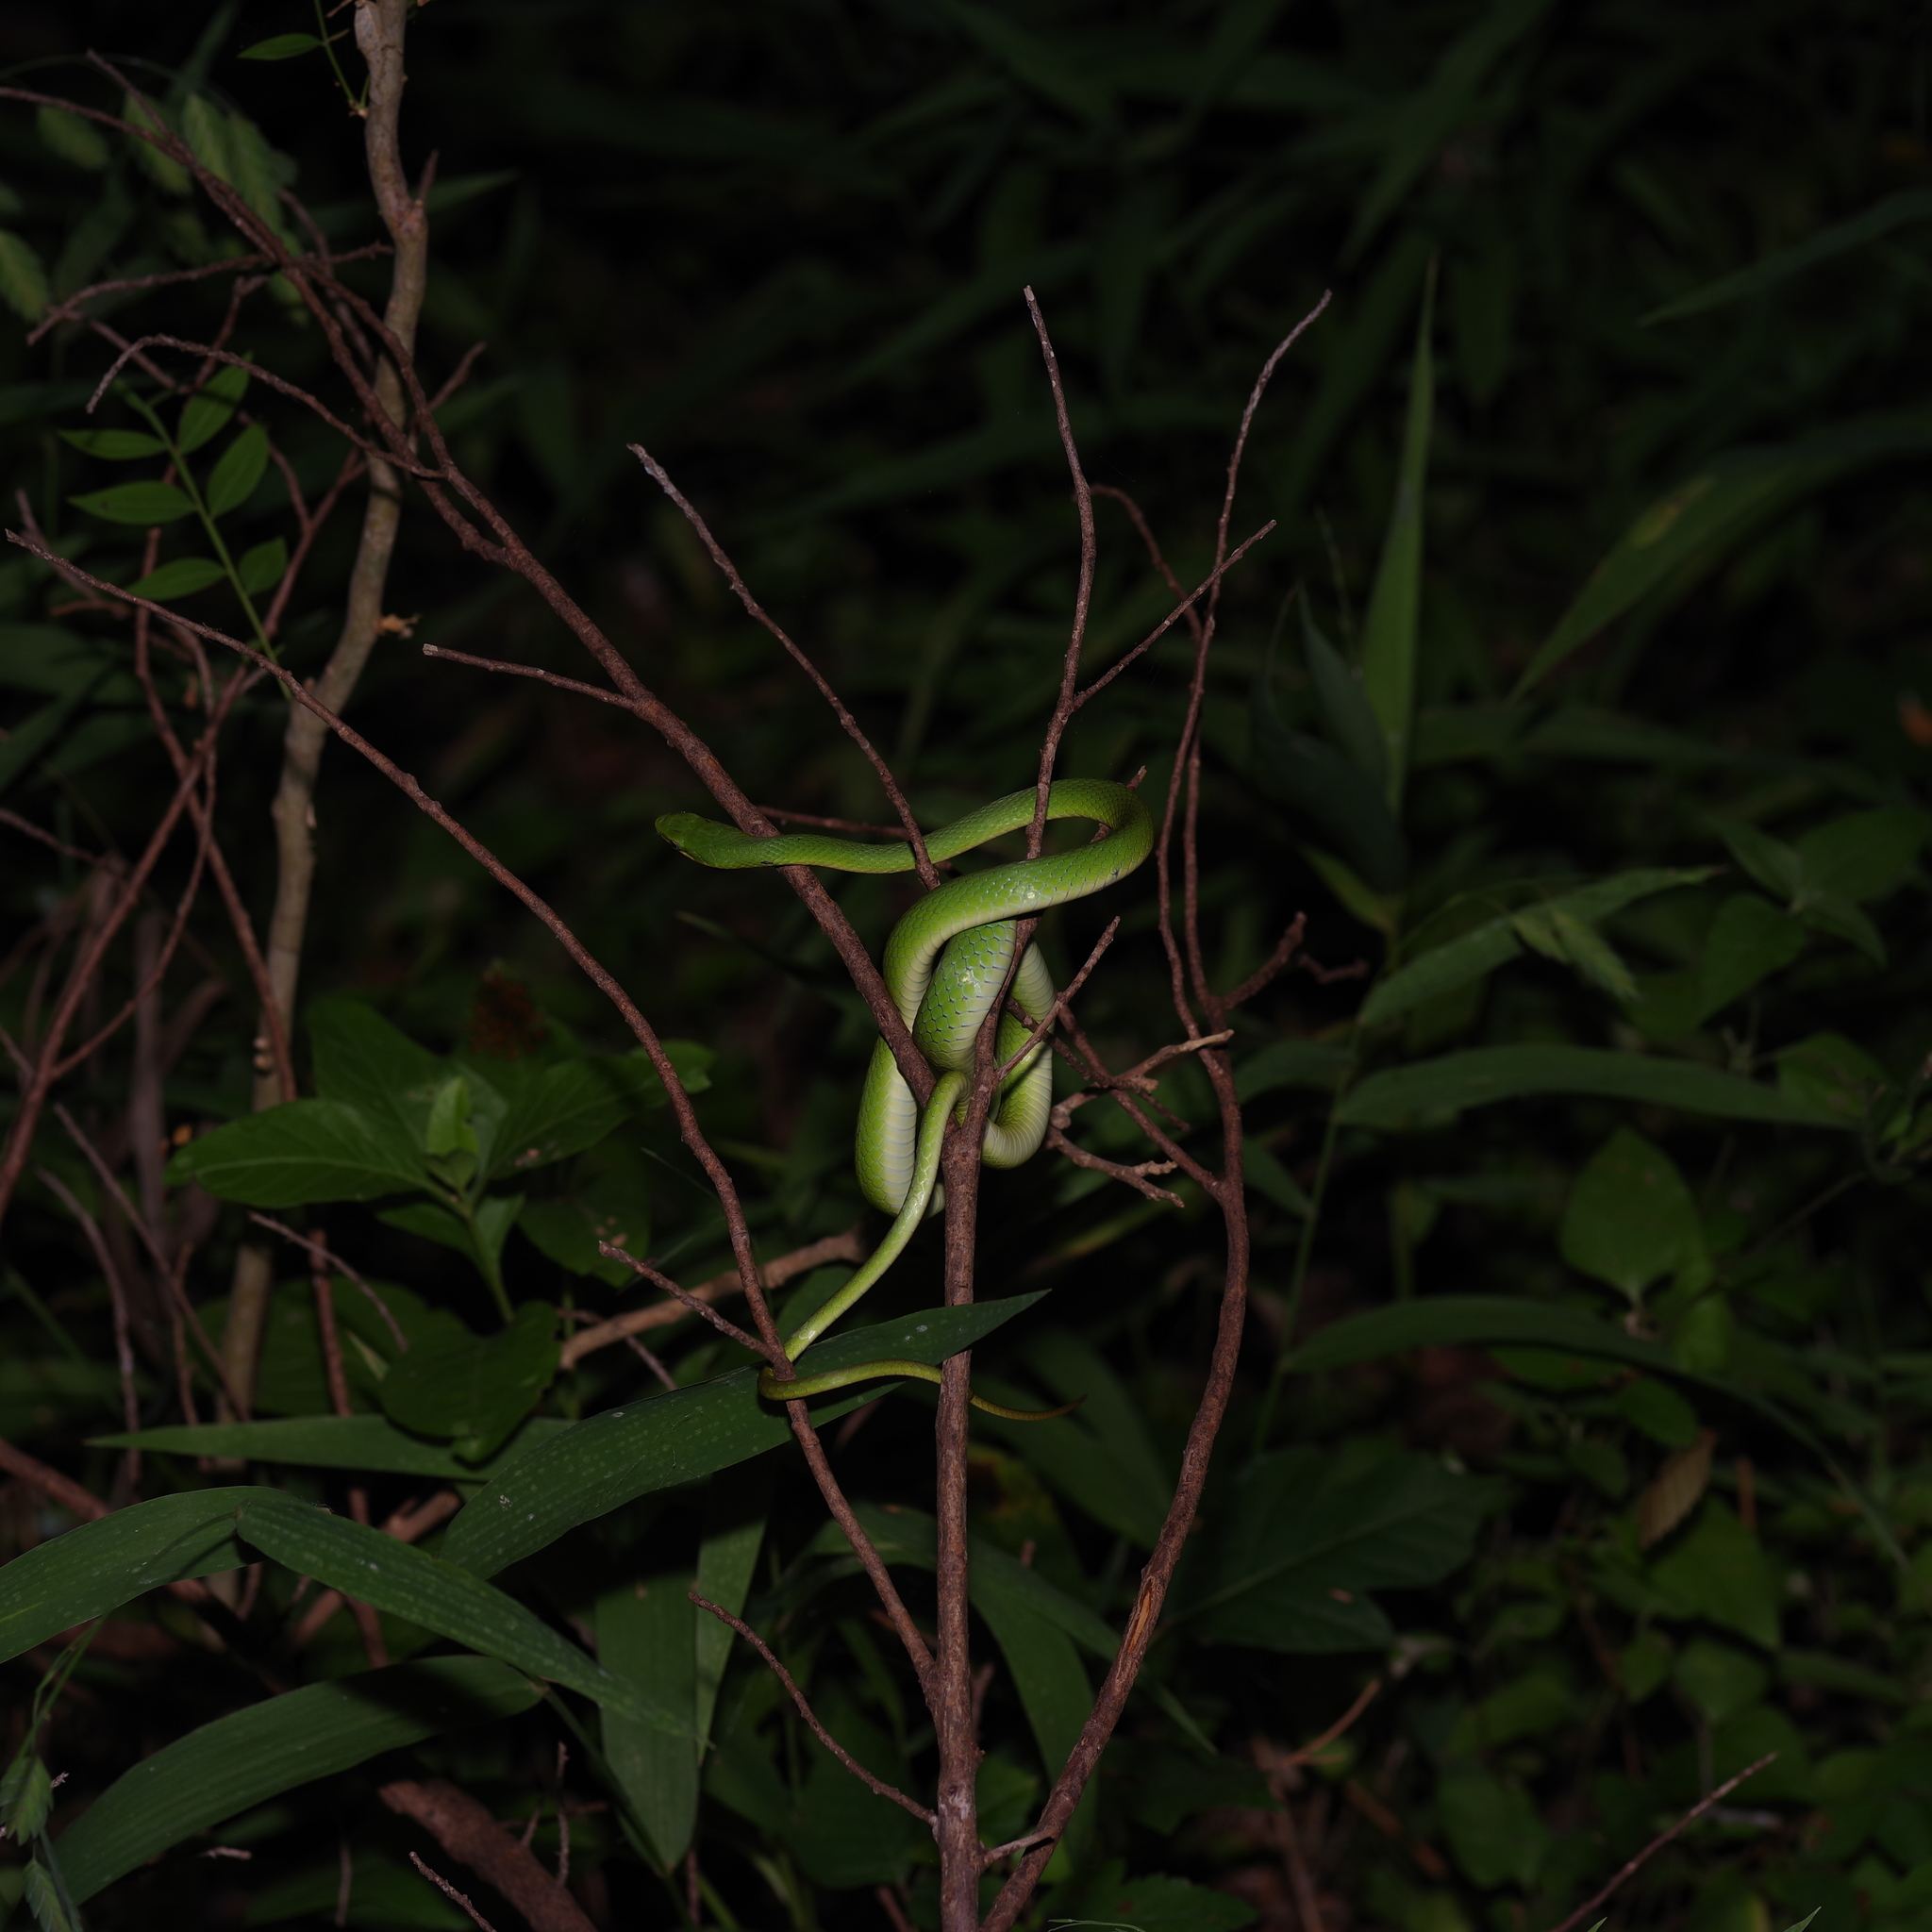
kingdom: Animalia
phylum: Chordata
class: Squamata
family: Colubridae
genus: Opheodrys
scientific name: Opheodrys aestivus
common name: Rough greensnake
